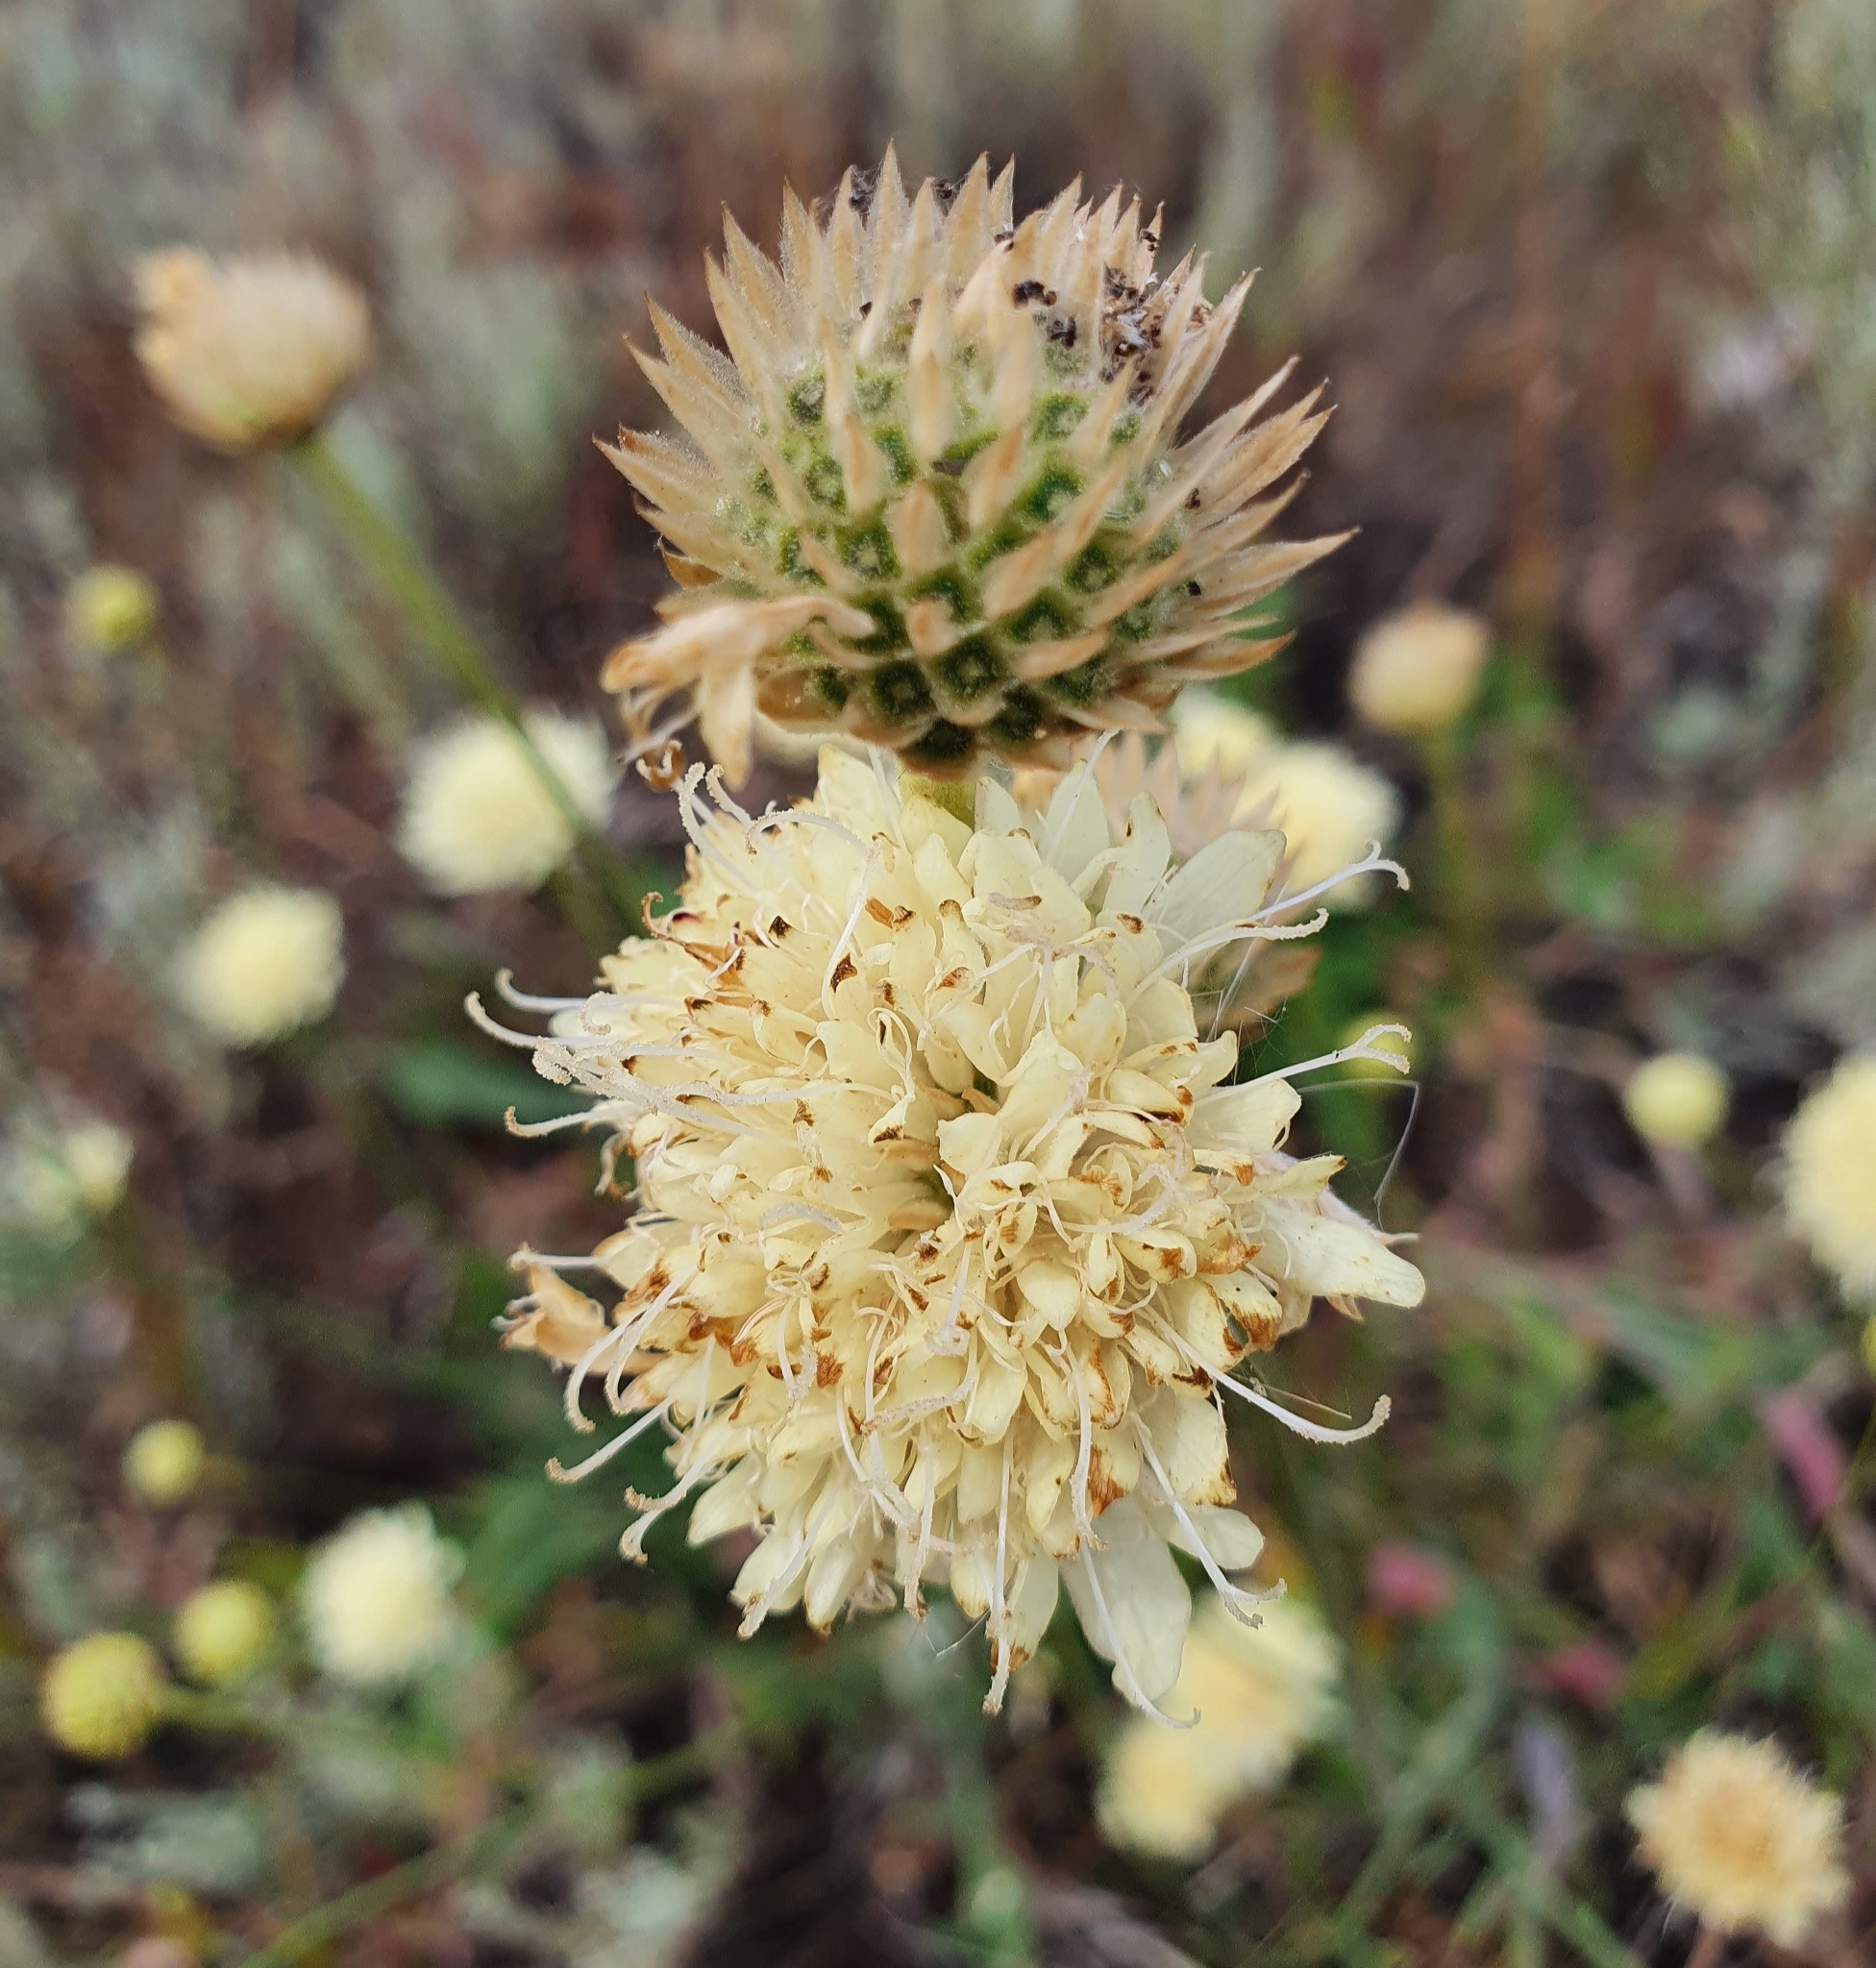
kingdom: Plantae
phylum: Tracheophyta
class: Magnoliopsida
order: Dipsacales
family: Caprifoliaceae
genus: Cephalaria
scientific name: Cephalaria uralensis
